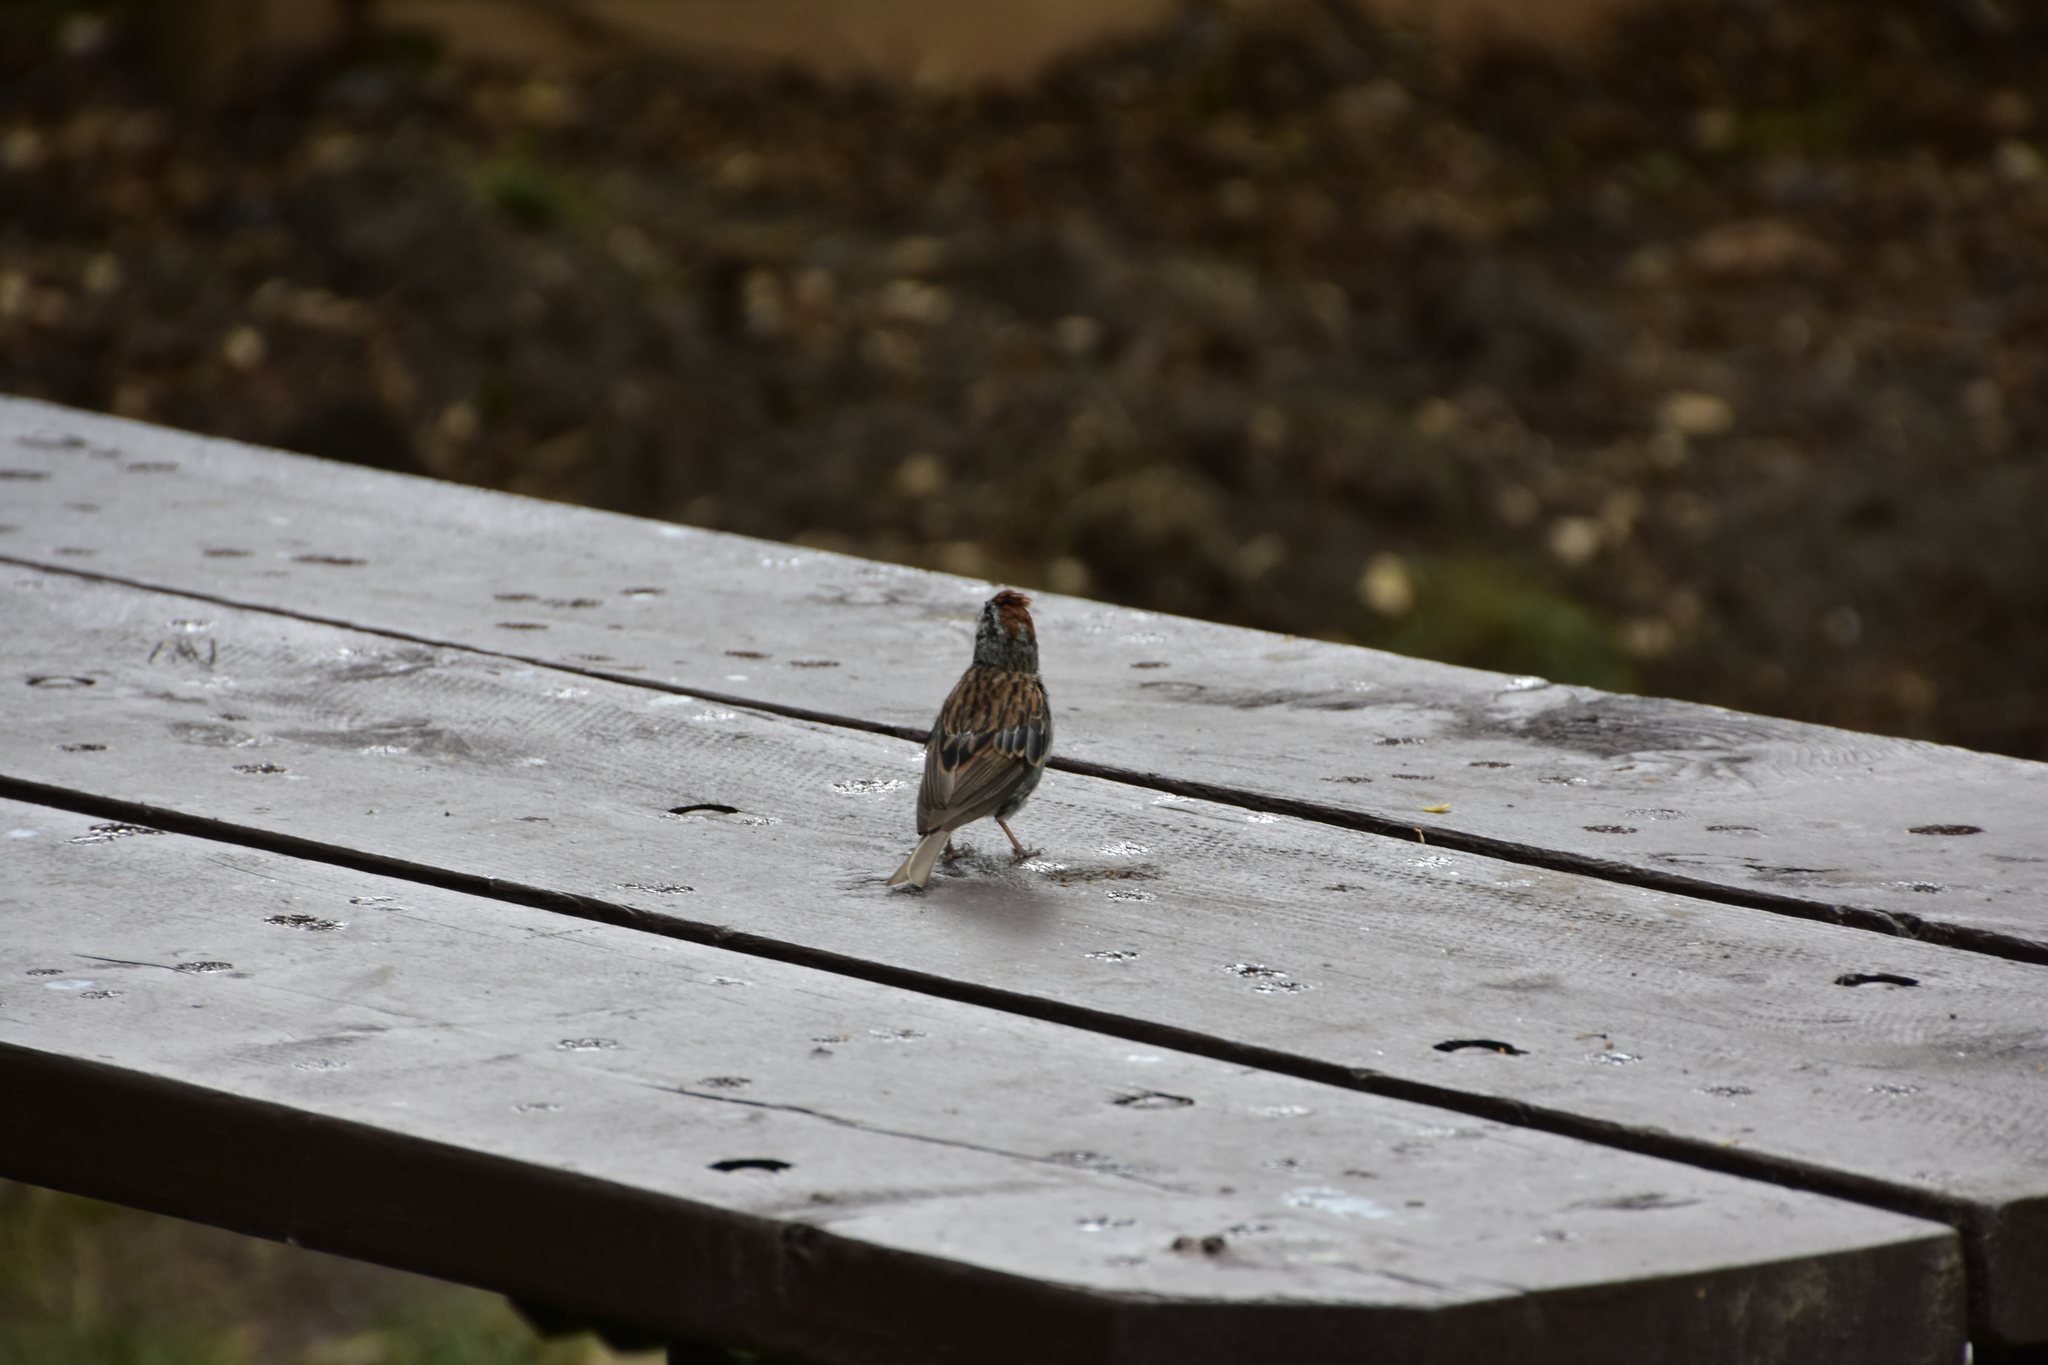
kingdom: Animalia
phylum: Chordata
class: Aves
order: Passeriformes
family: Passerellidae
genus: Spizella
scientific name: Spizella passerina
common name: Chipping sparrow
